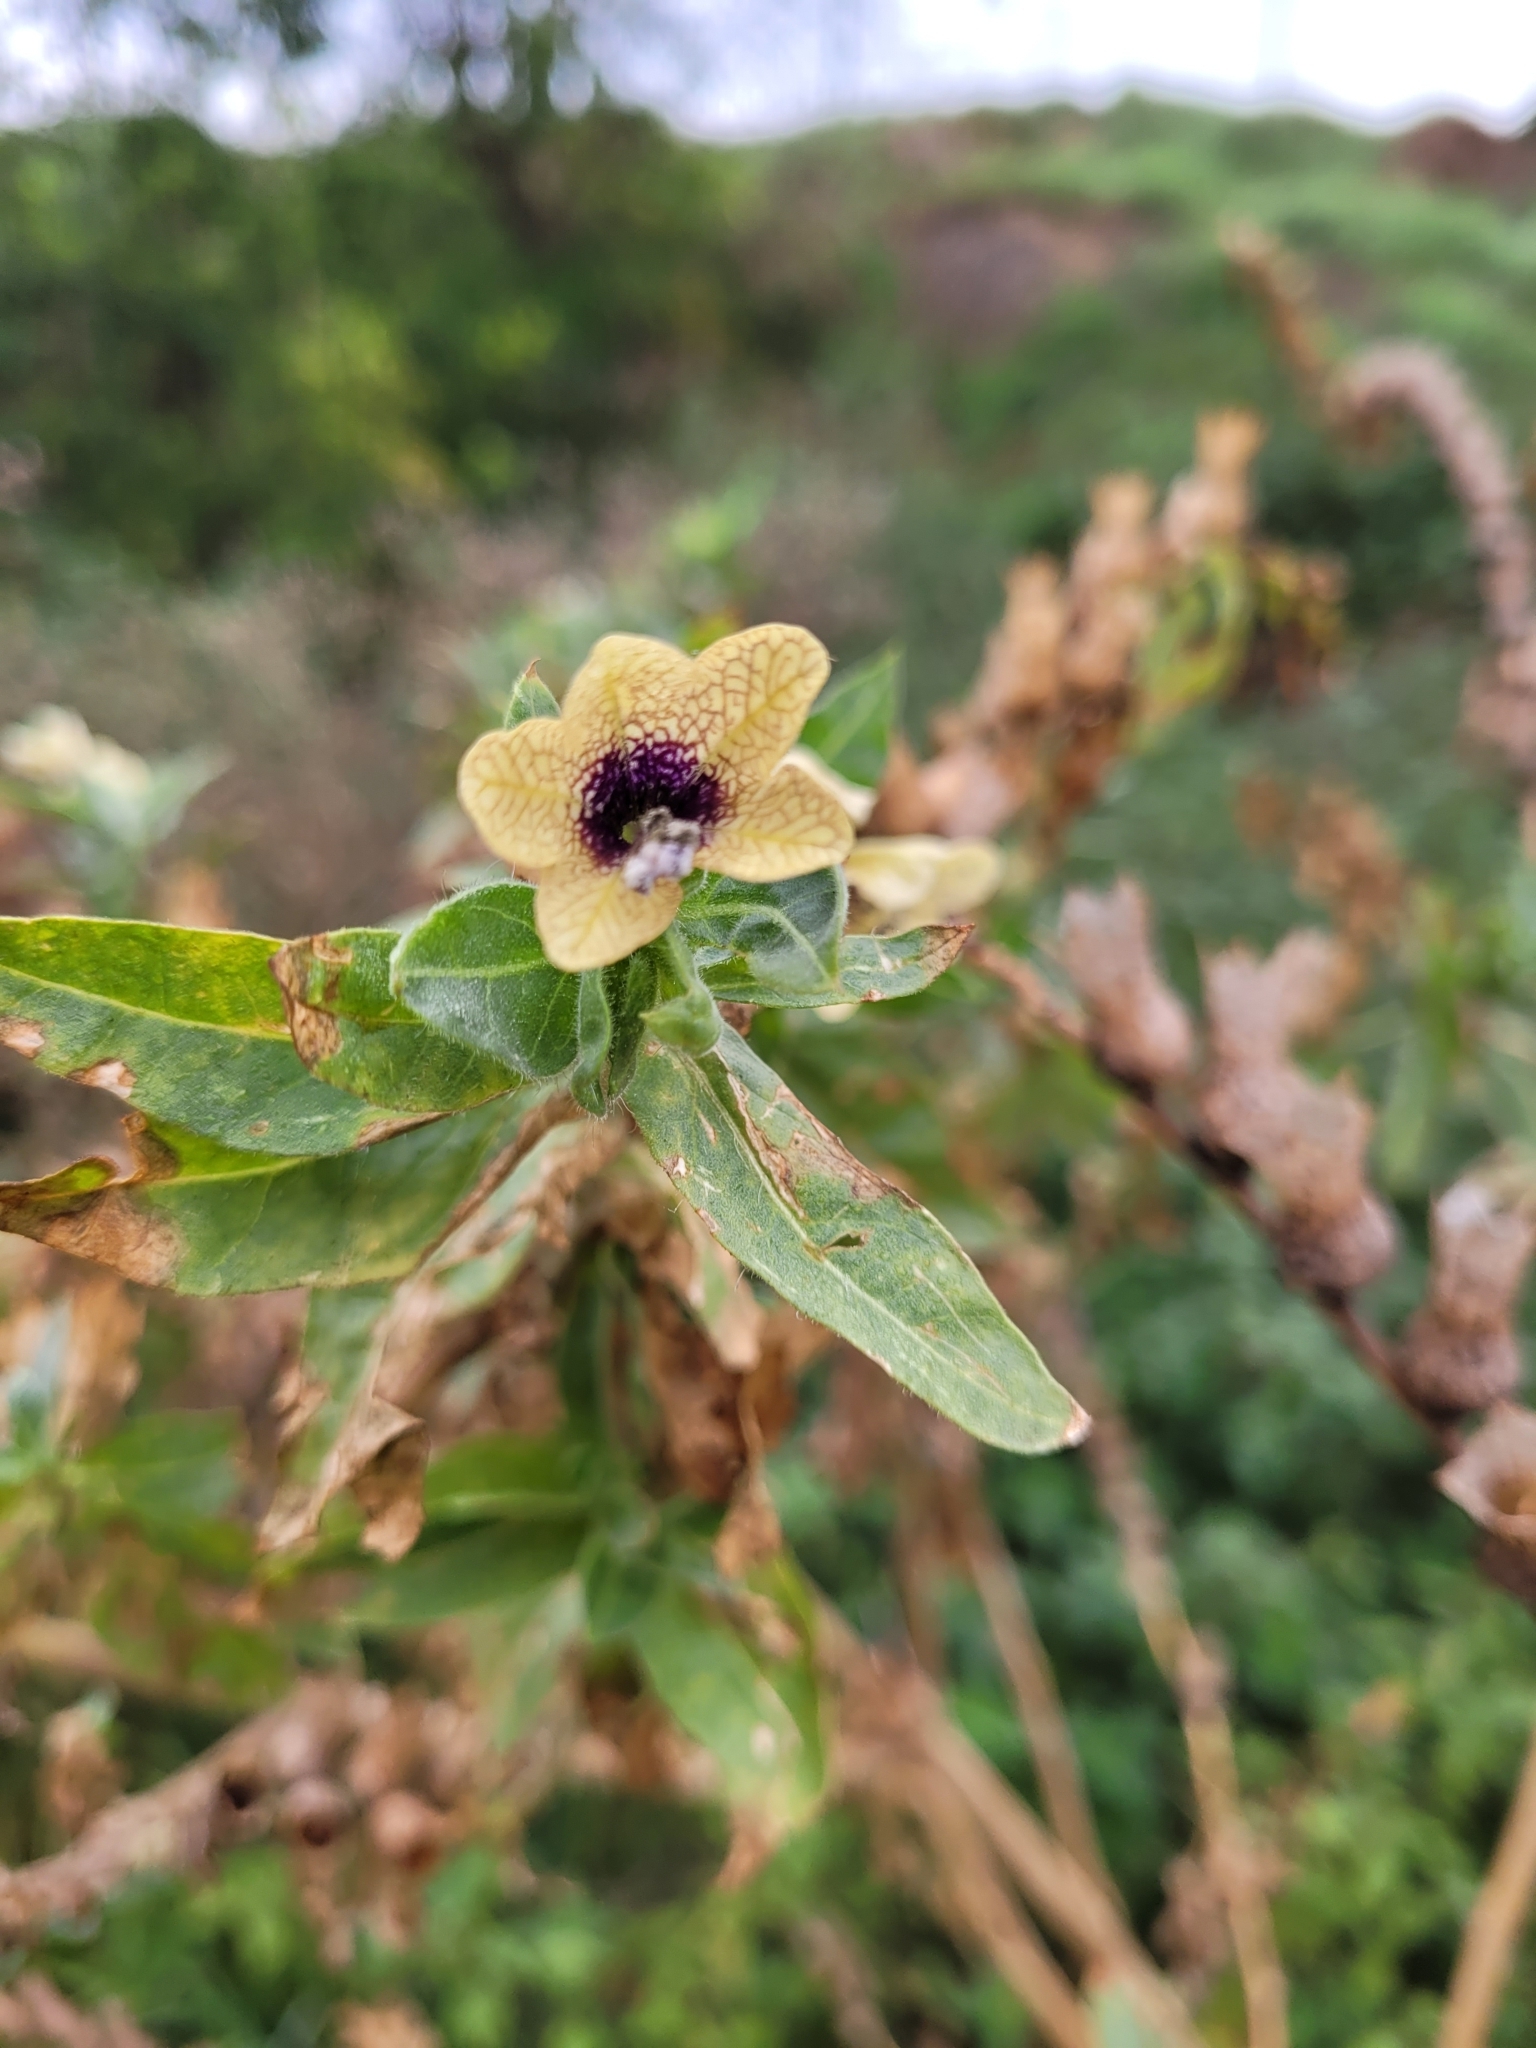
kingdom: Plantae
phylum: Tracheophyta
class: Magnoliopsida
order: Solanales
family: Solanaceae
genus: Hyoscyamus
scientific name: Hyoscyamus niger
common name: Henbane
